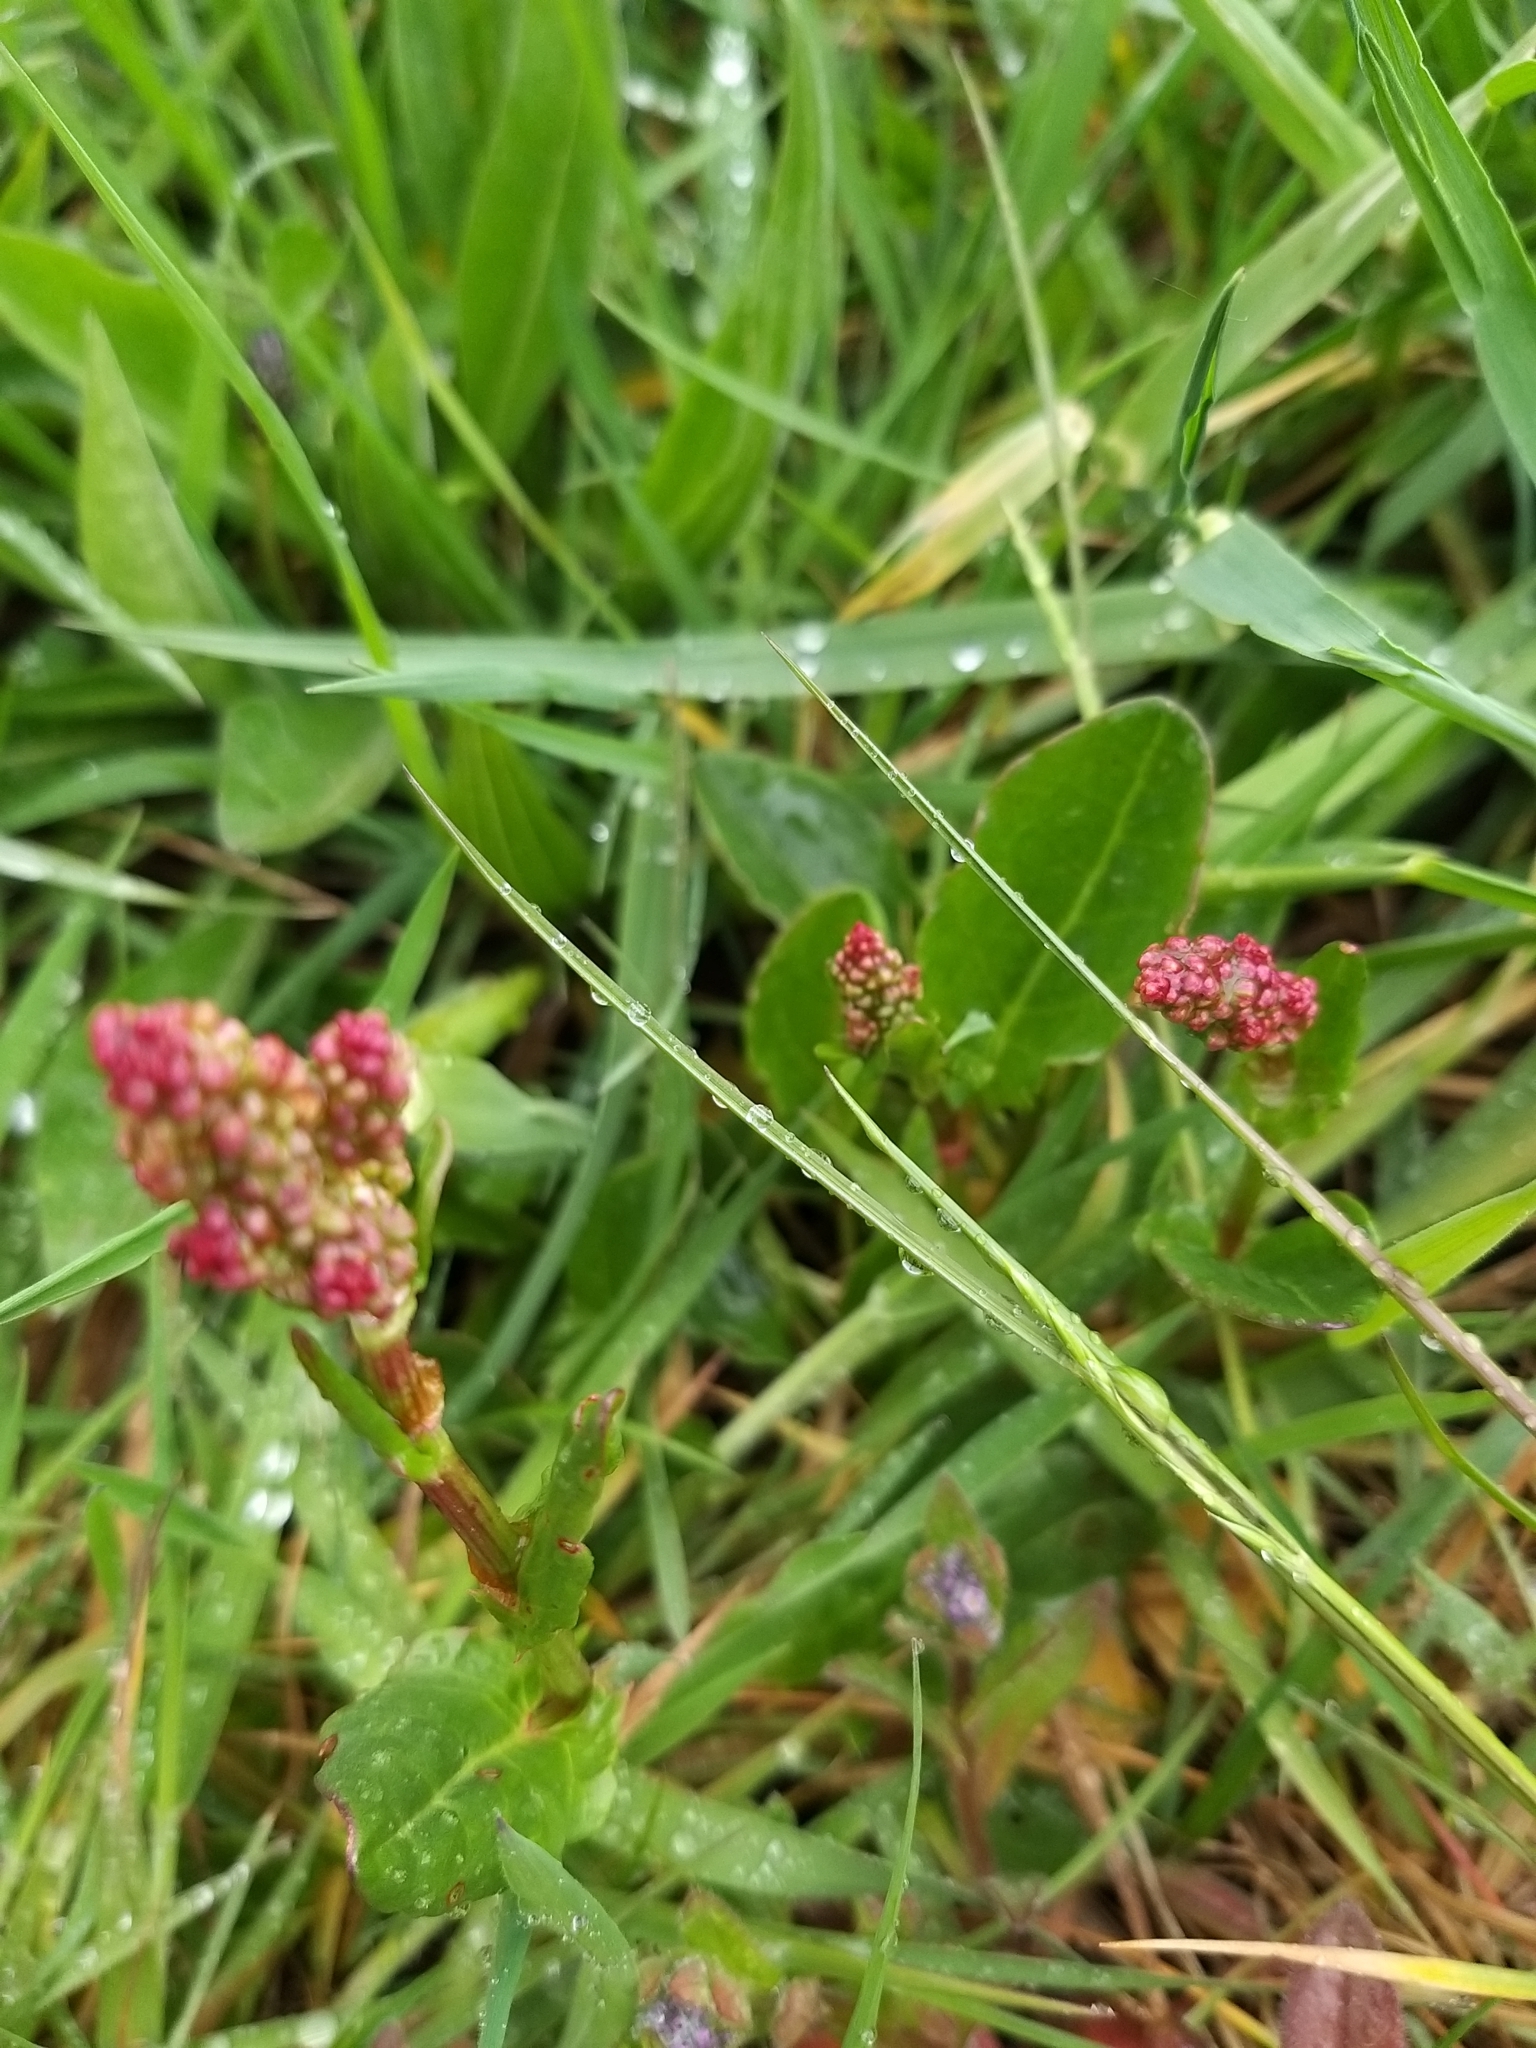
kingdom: Plantae
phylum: Tracheophyta
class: Magnoliopsida
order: Caryophyllales
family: Polygonaceae
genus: Rumex
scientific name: Rumex acetosa
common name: Garden sorrel
